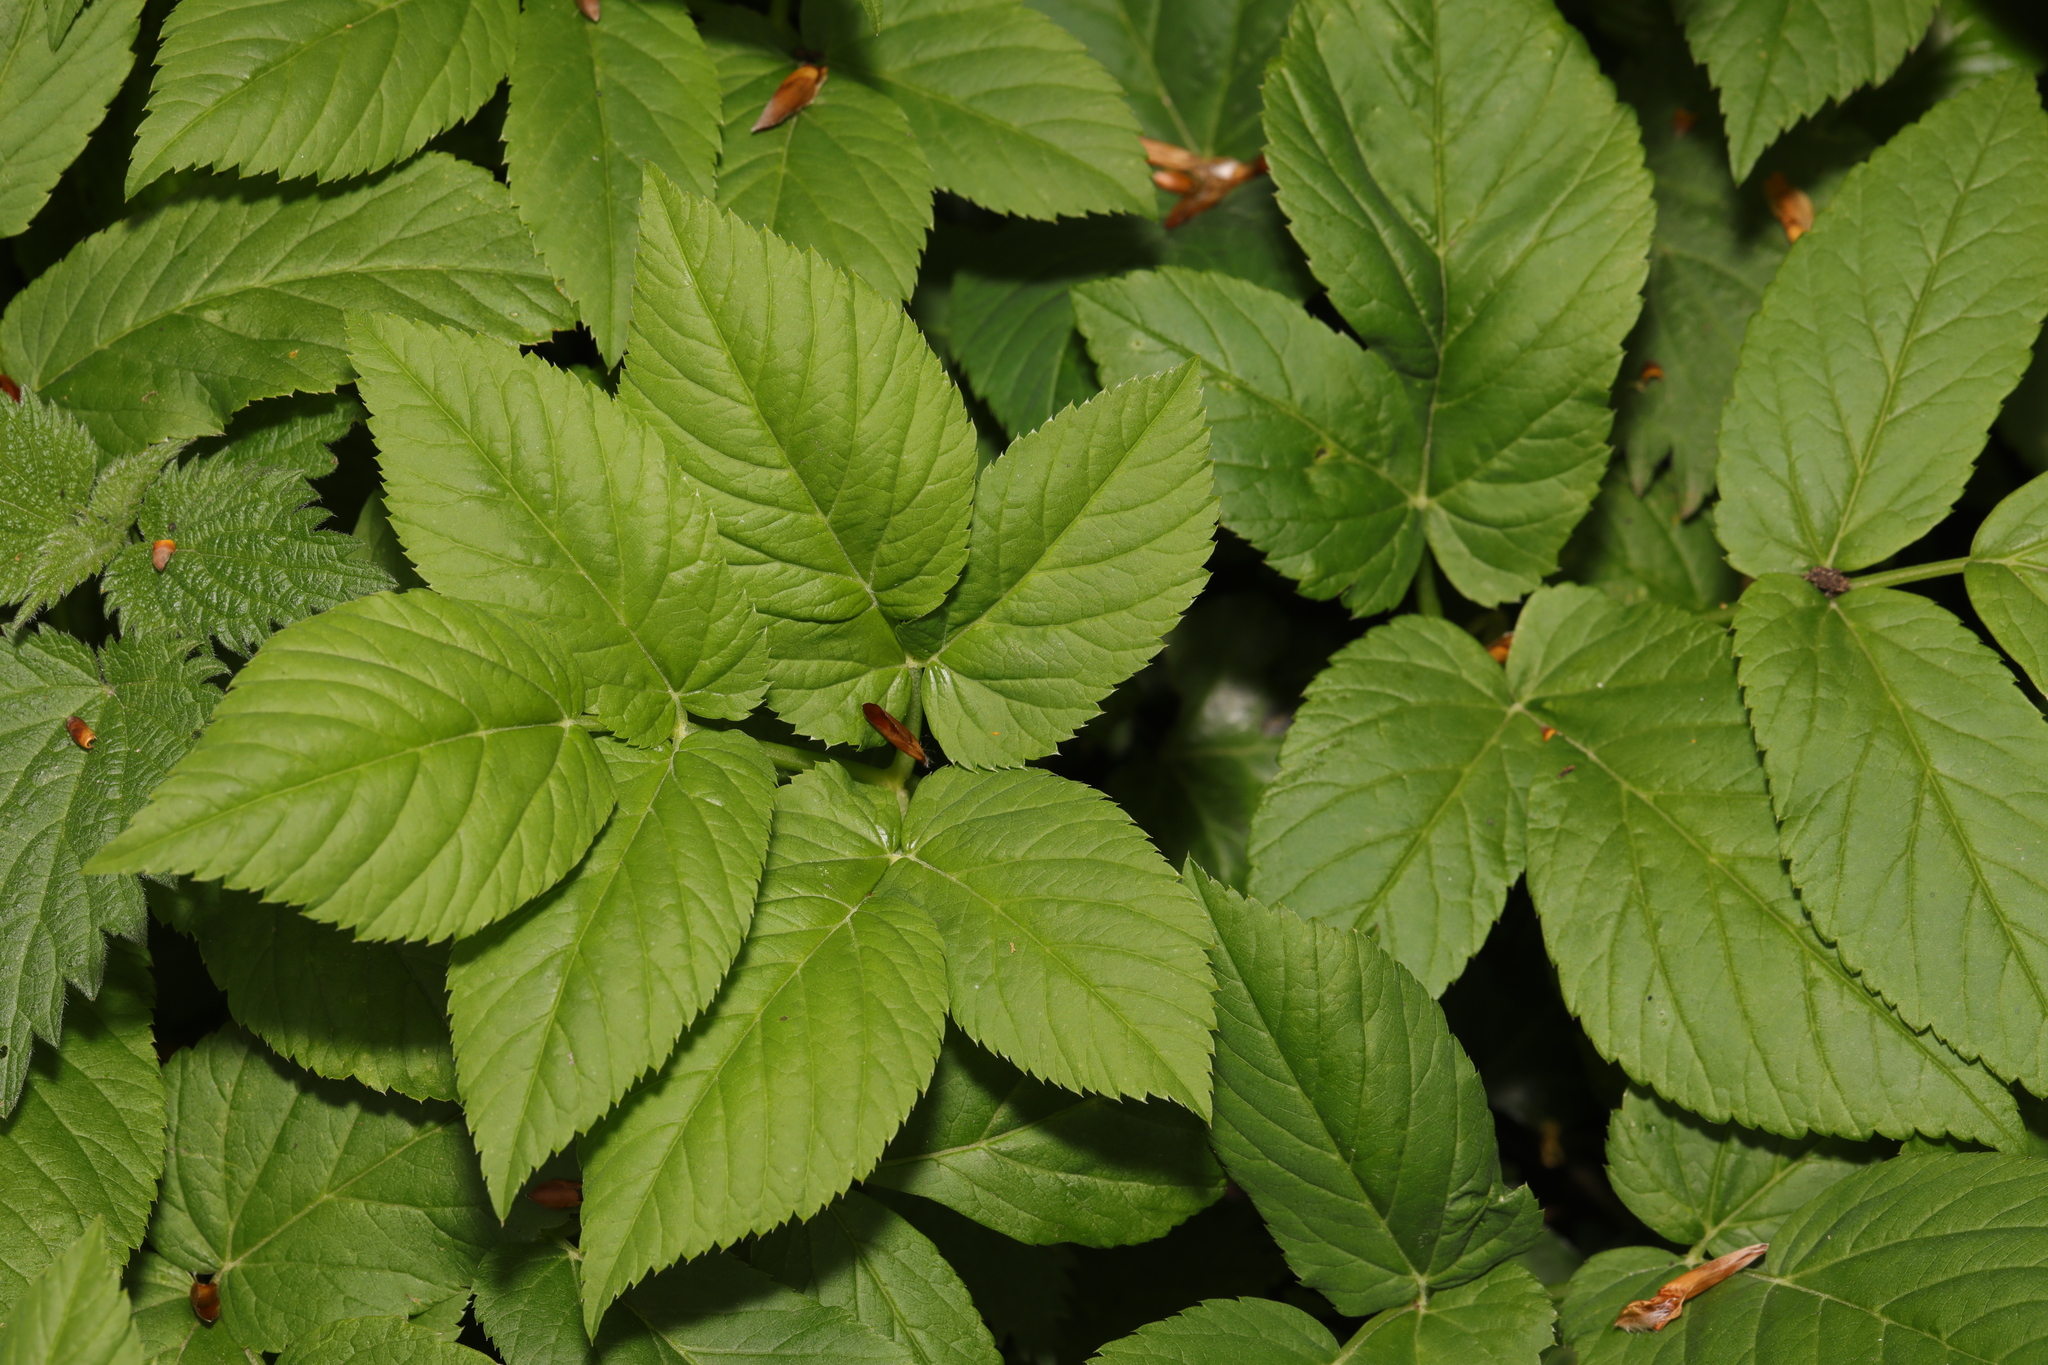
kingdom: Plantae
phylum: Tracheophyta
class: Magnoliopsida
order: Apiales
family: Apiaceae
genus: Aegopodium
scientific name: Aegopodium podagraria
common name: Ground-elder
